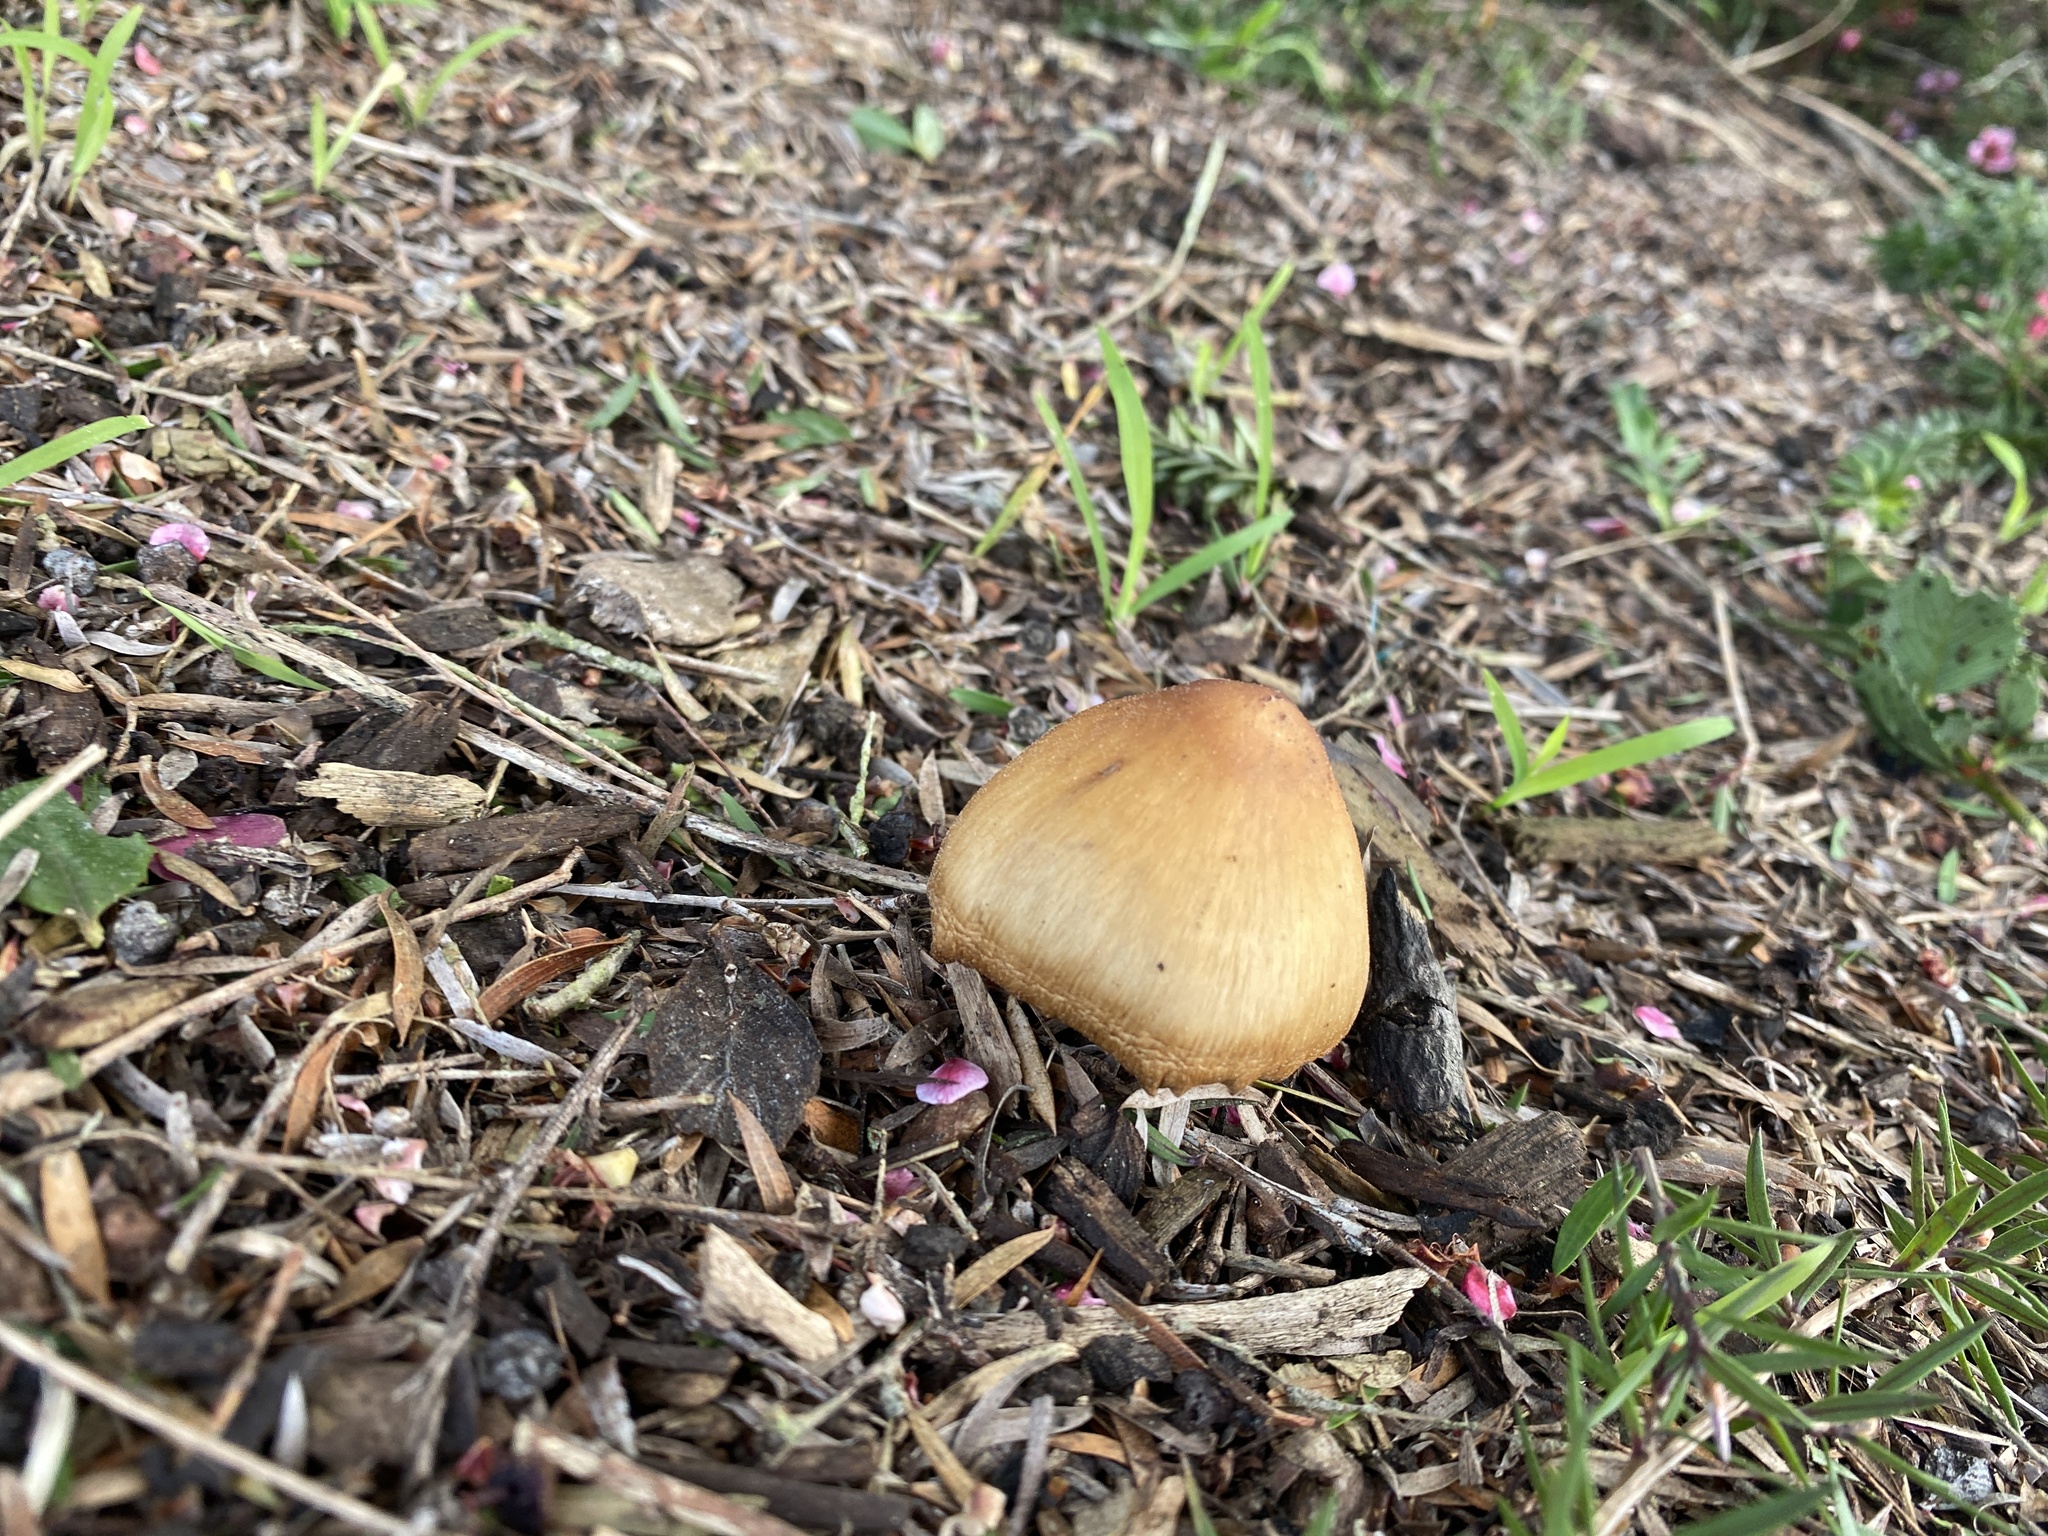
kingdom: Fungi
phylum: Basidiomycota
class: Agaricomycetes
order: Agaricales
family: Tricholomataceae
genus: Caulorhiza
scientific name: Caulorhiza umbonata
